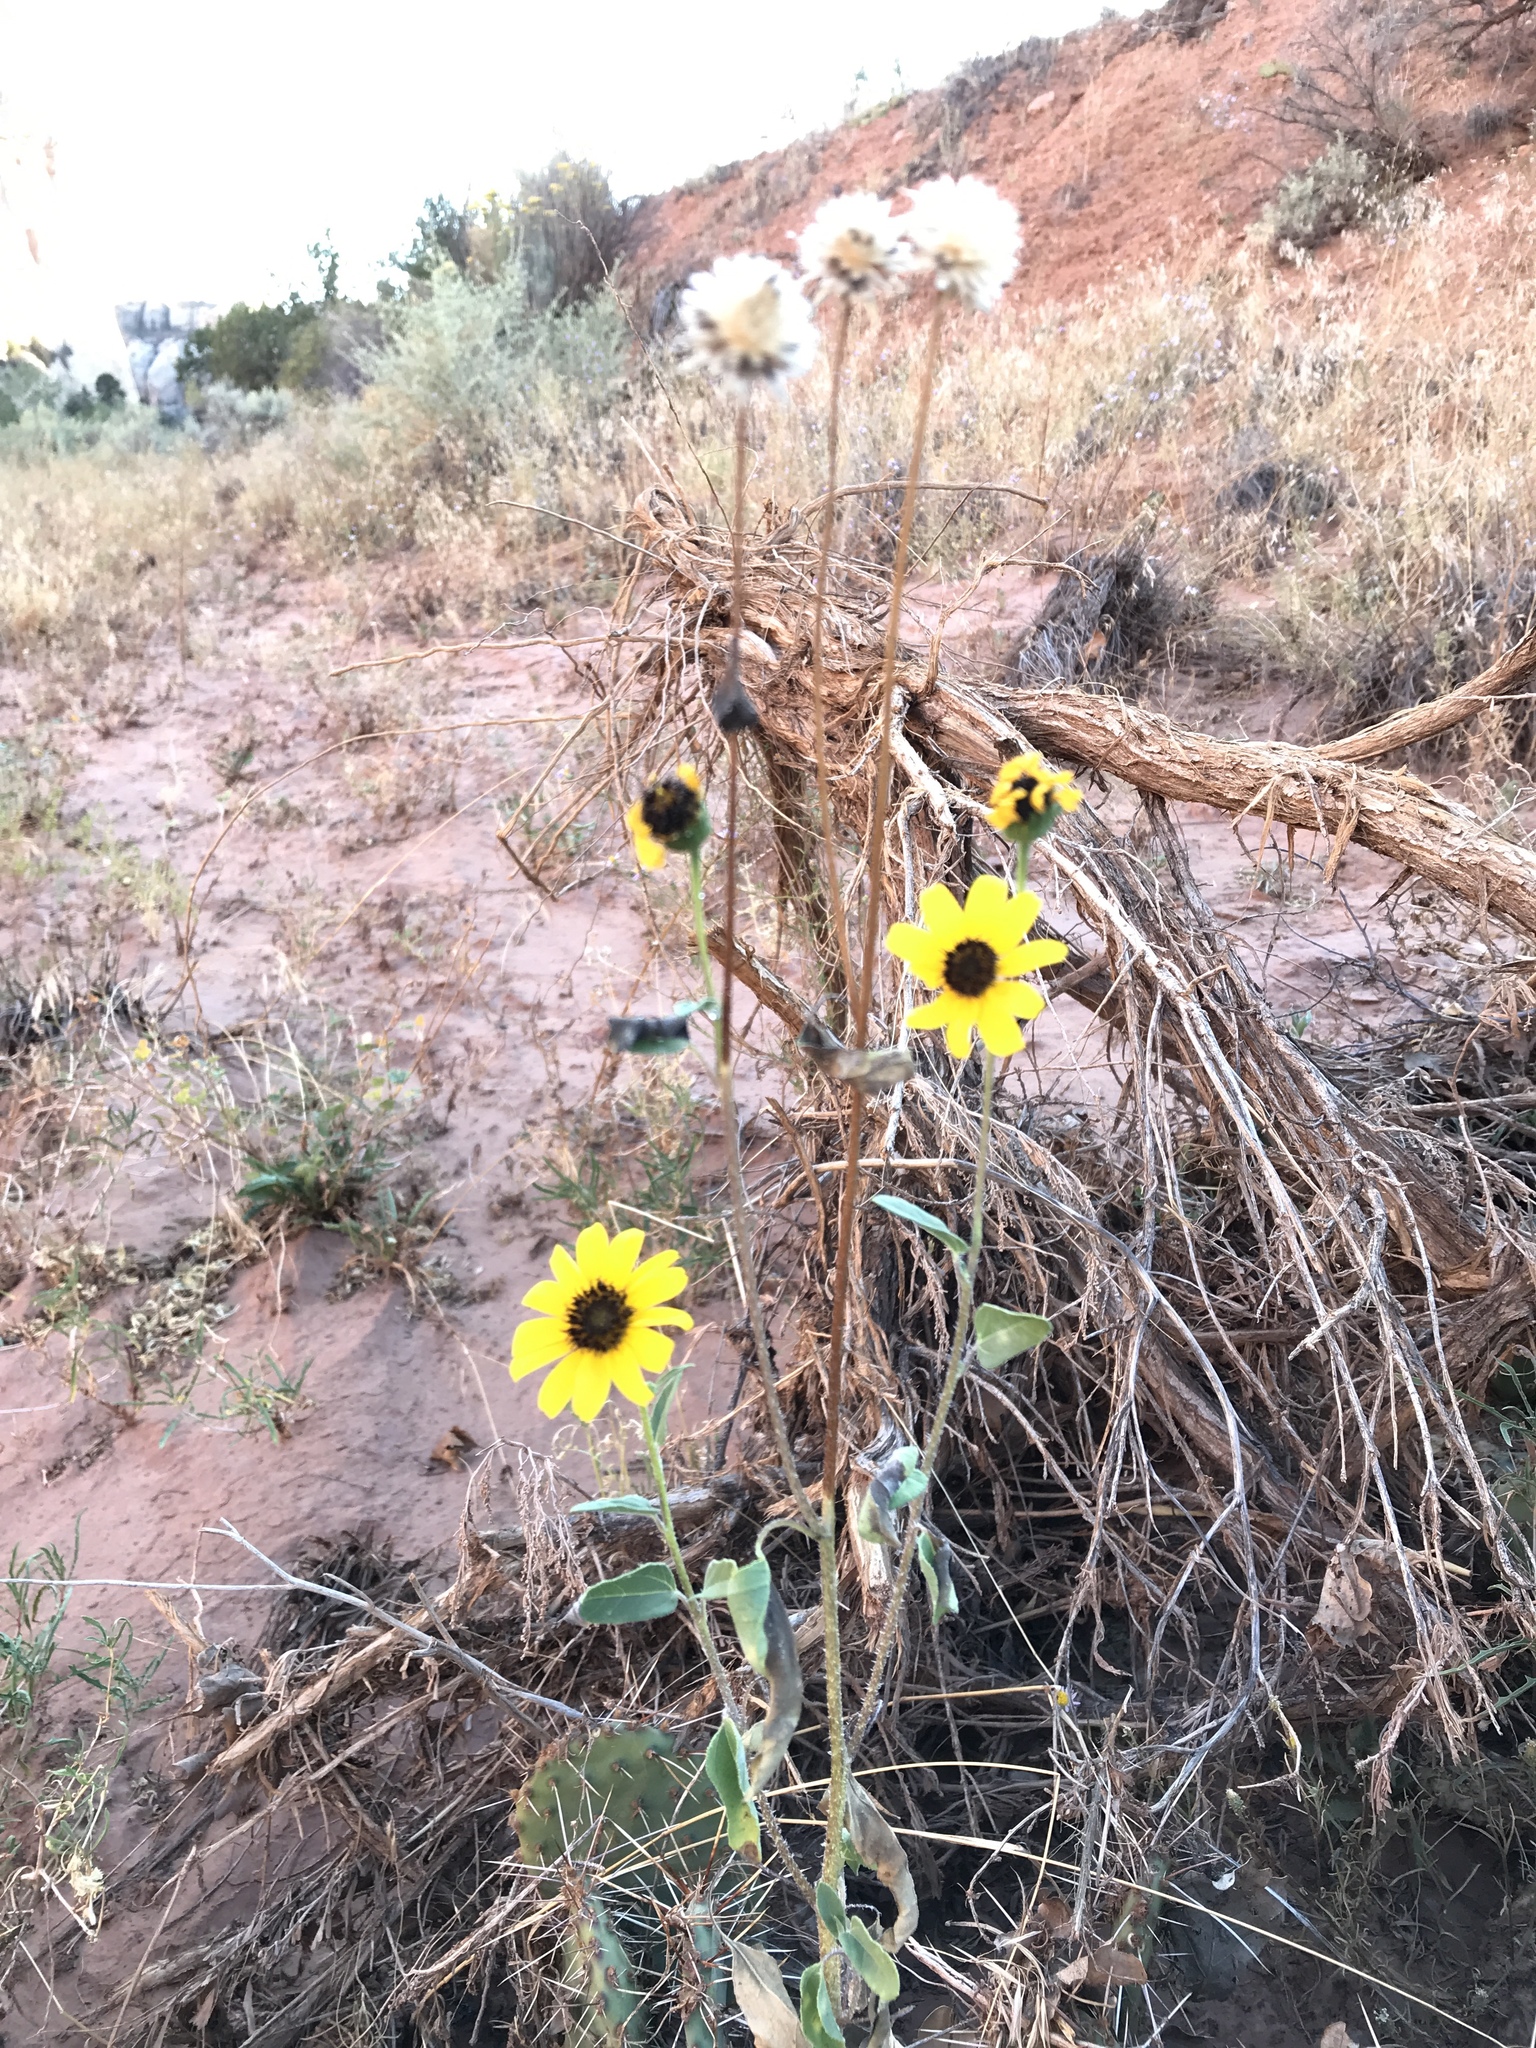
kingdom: Plantae
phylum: Tracheophyta
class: Magnoliopsida
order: Asterales
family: Asteraceae
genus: Helianthus
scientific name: Helianthus petiolaris
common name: Lesser sunflower
